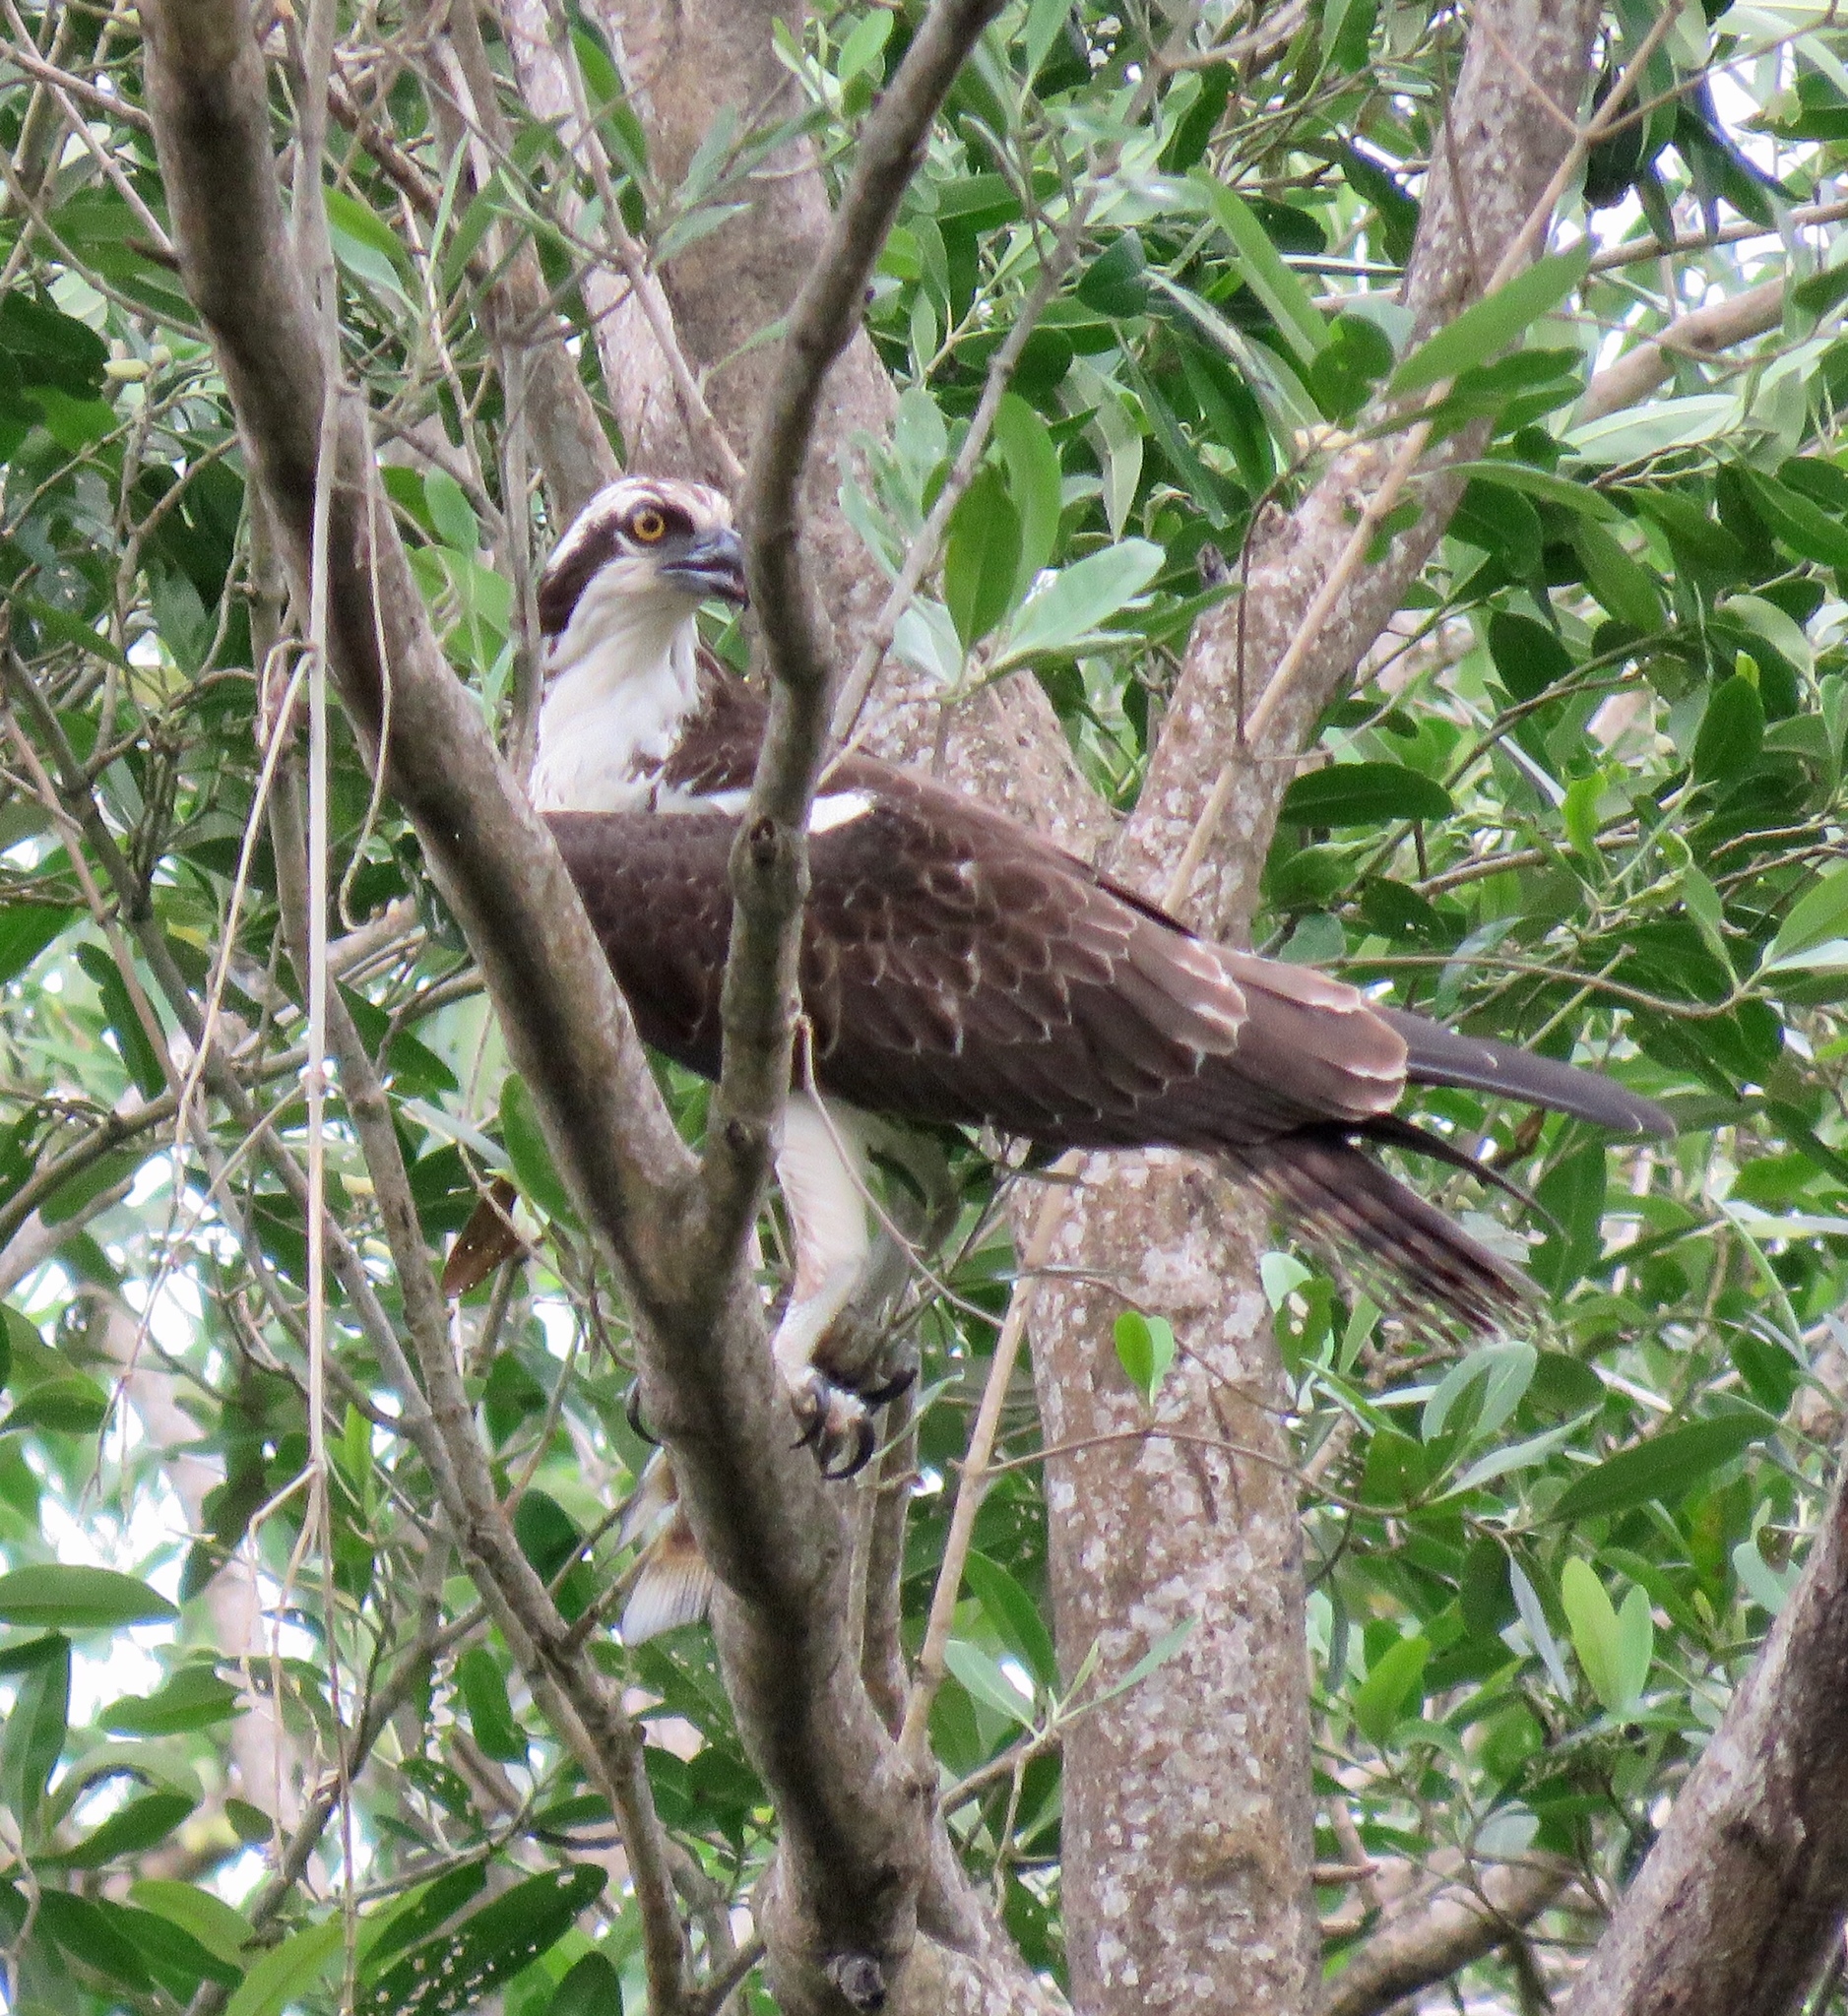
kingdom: Animalia
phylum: Chordata
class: Aves
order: Accipitriformes
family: Pandionidae
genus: Pandion
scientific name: Pandion haliaetus
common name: Osprey
